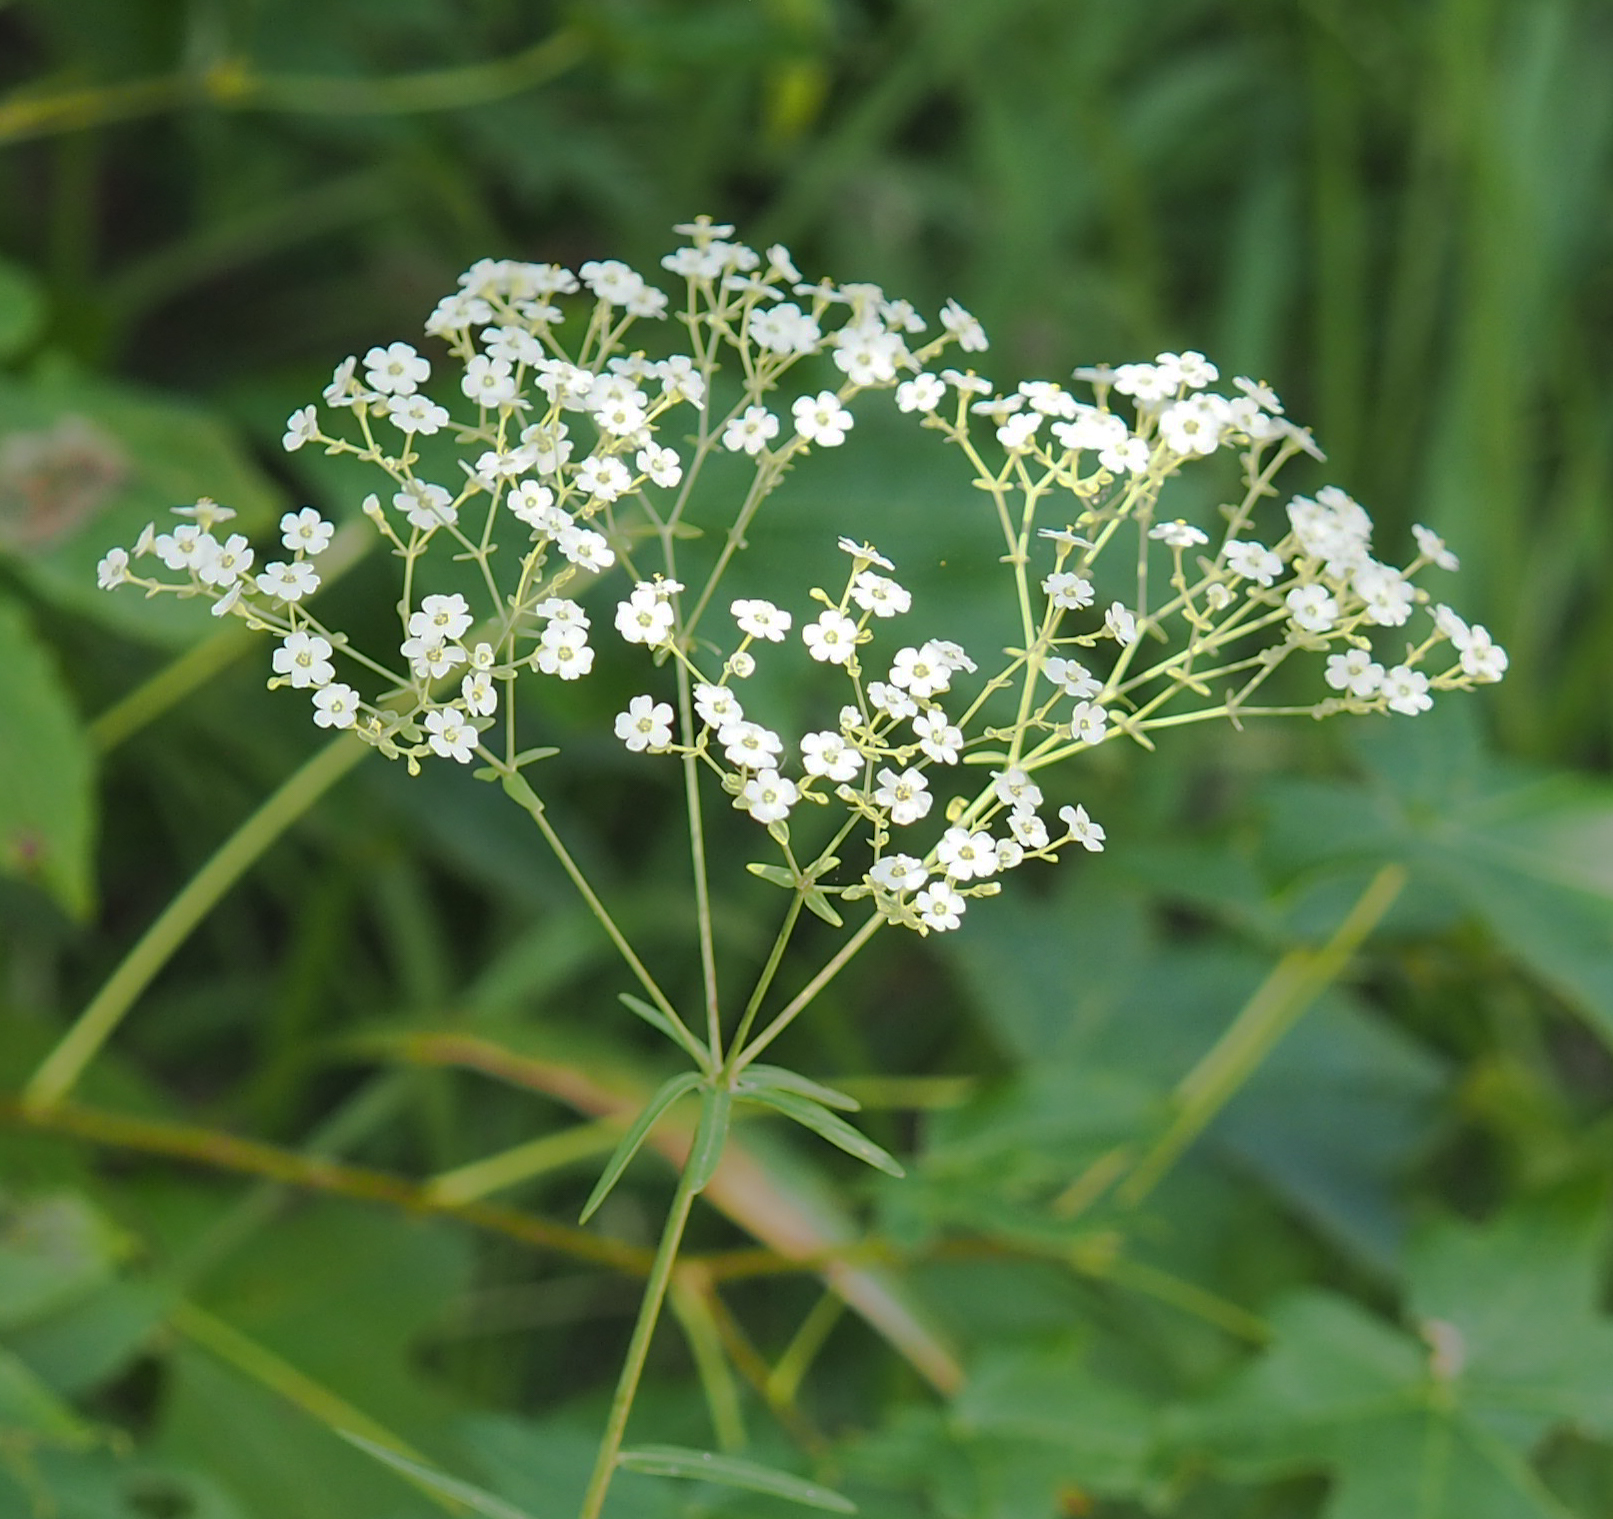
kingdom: Plantae
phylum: Tracheophyta
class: Magnoliopsida
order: Malpighiales
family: Euphorbiaceae
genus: Euphorbia
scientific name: Euphorbia corollata
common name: Flowering spurge
